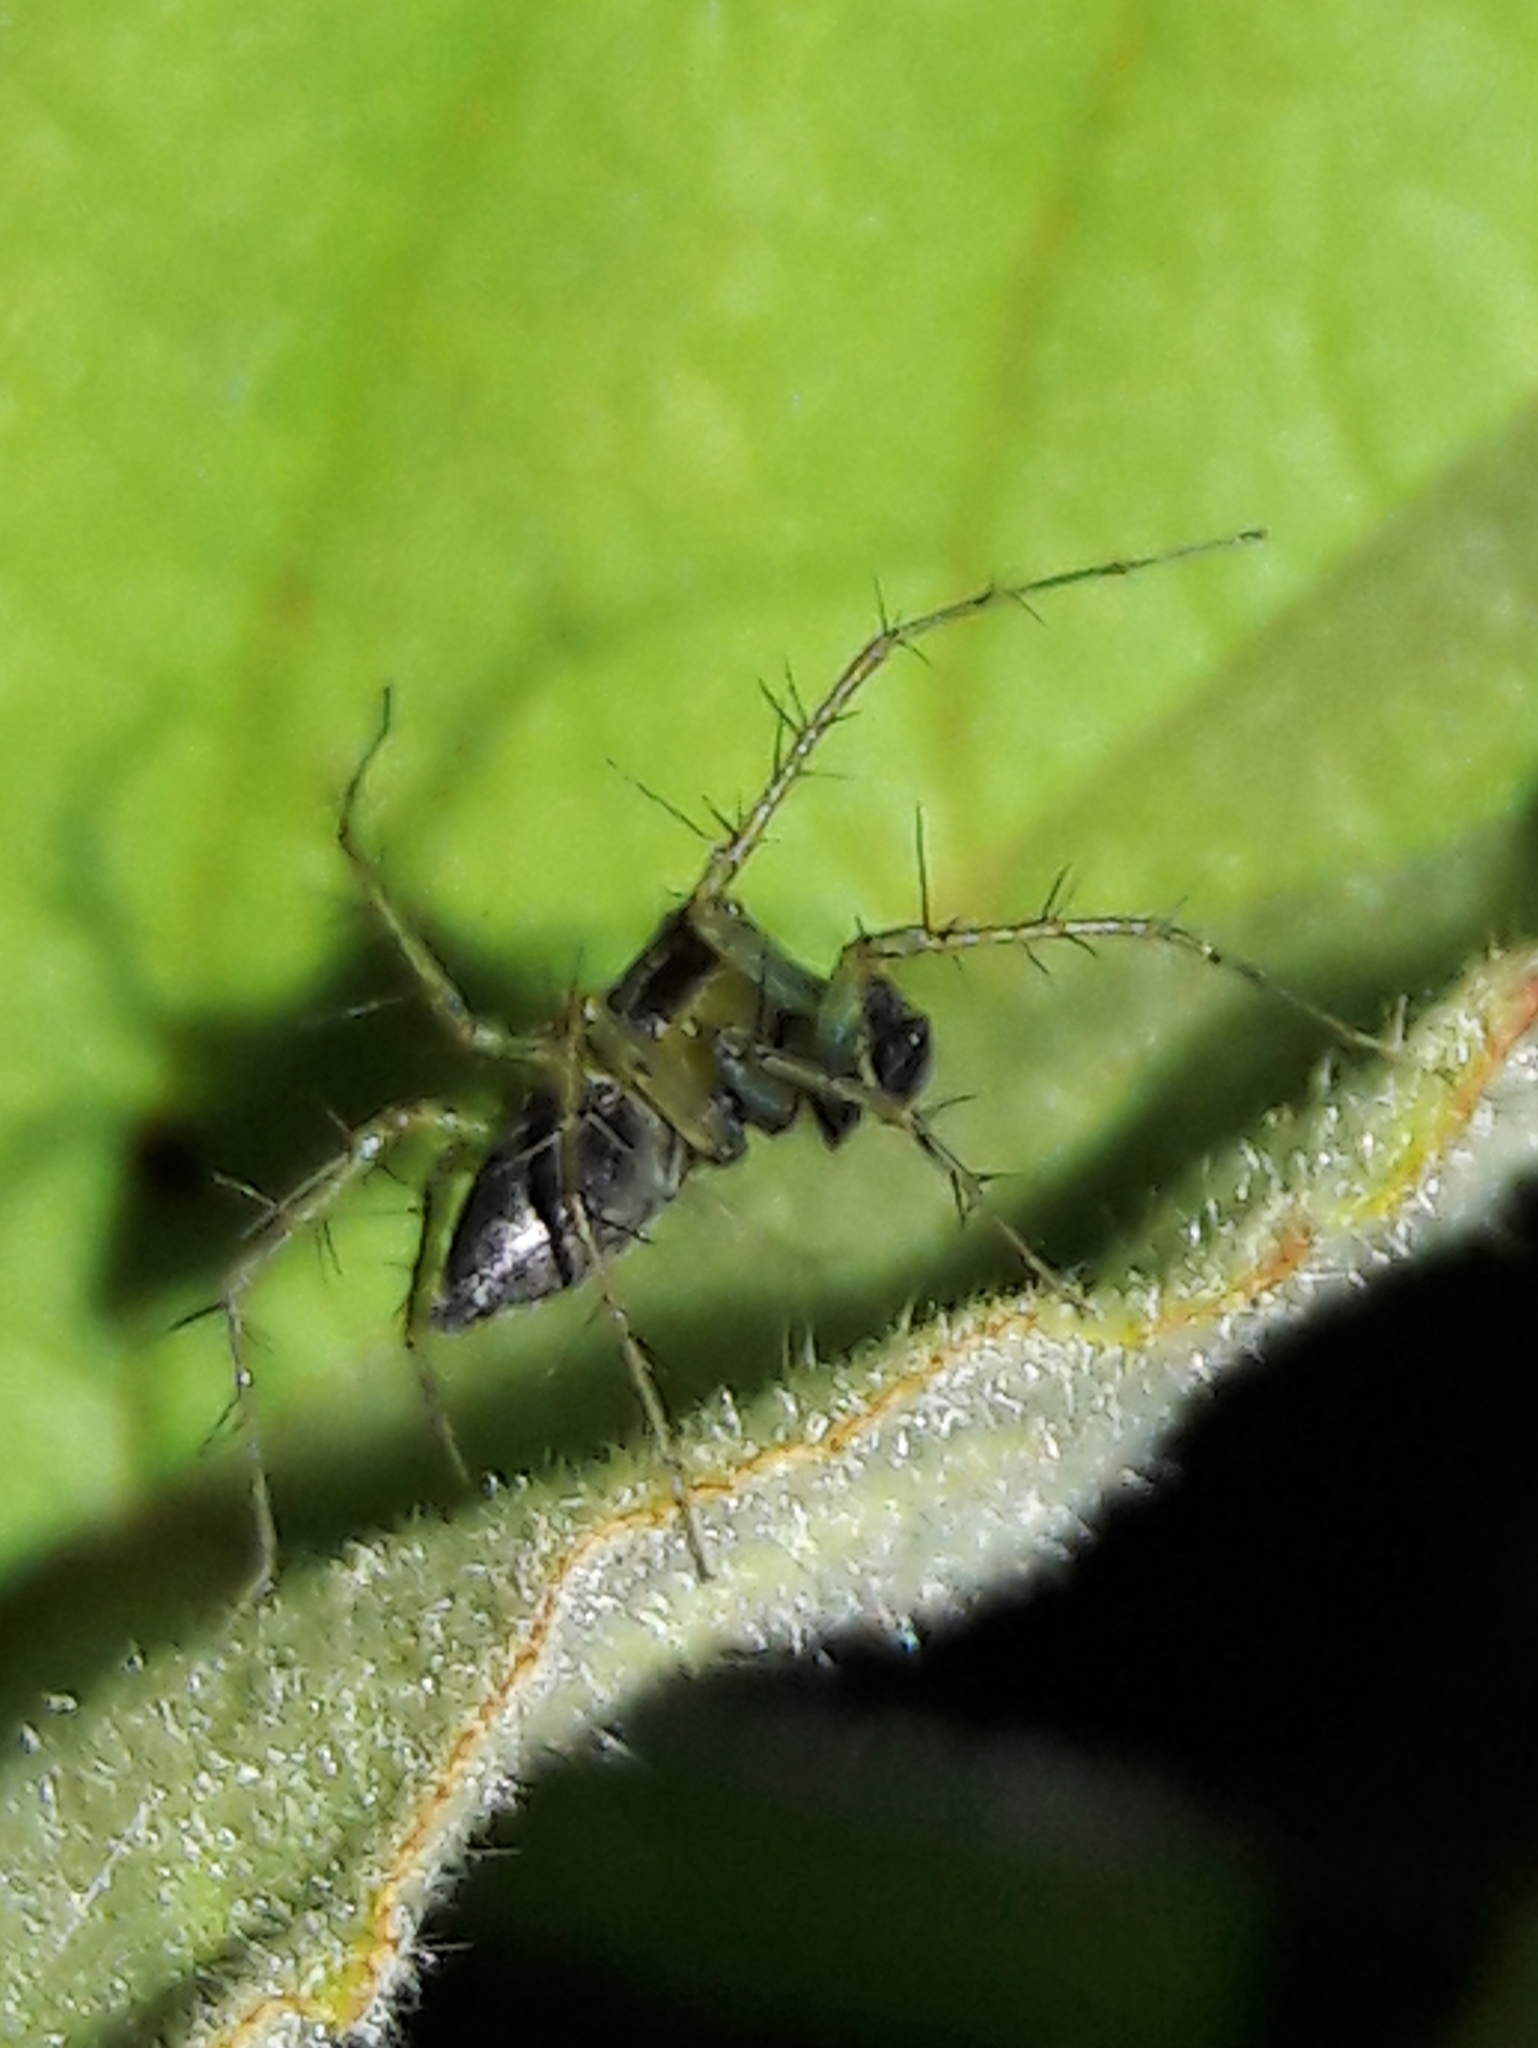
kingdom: Animalia
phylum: Arthropoda
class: Arachnida
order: Araneae
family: Oxyopidae
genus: Oxyopes
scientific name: Oxyopes salticus
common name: Lynx spiders
